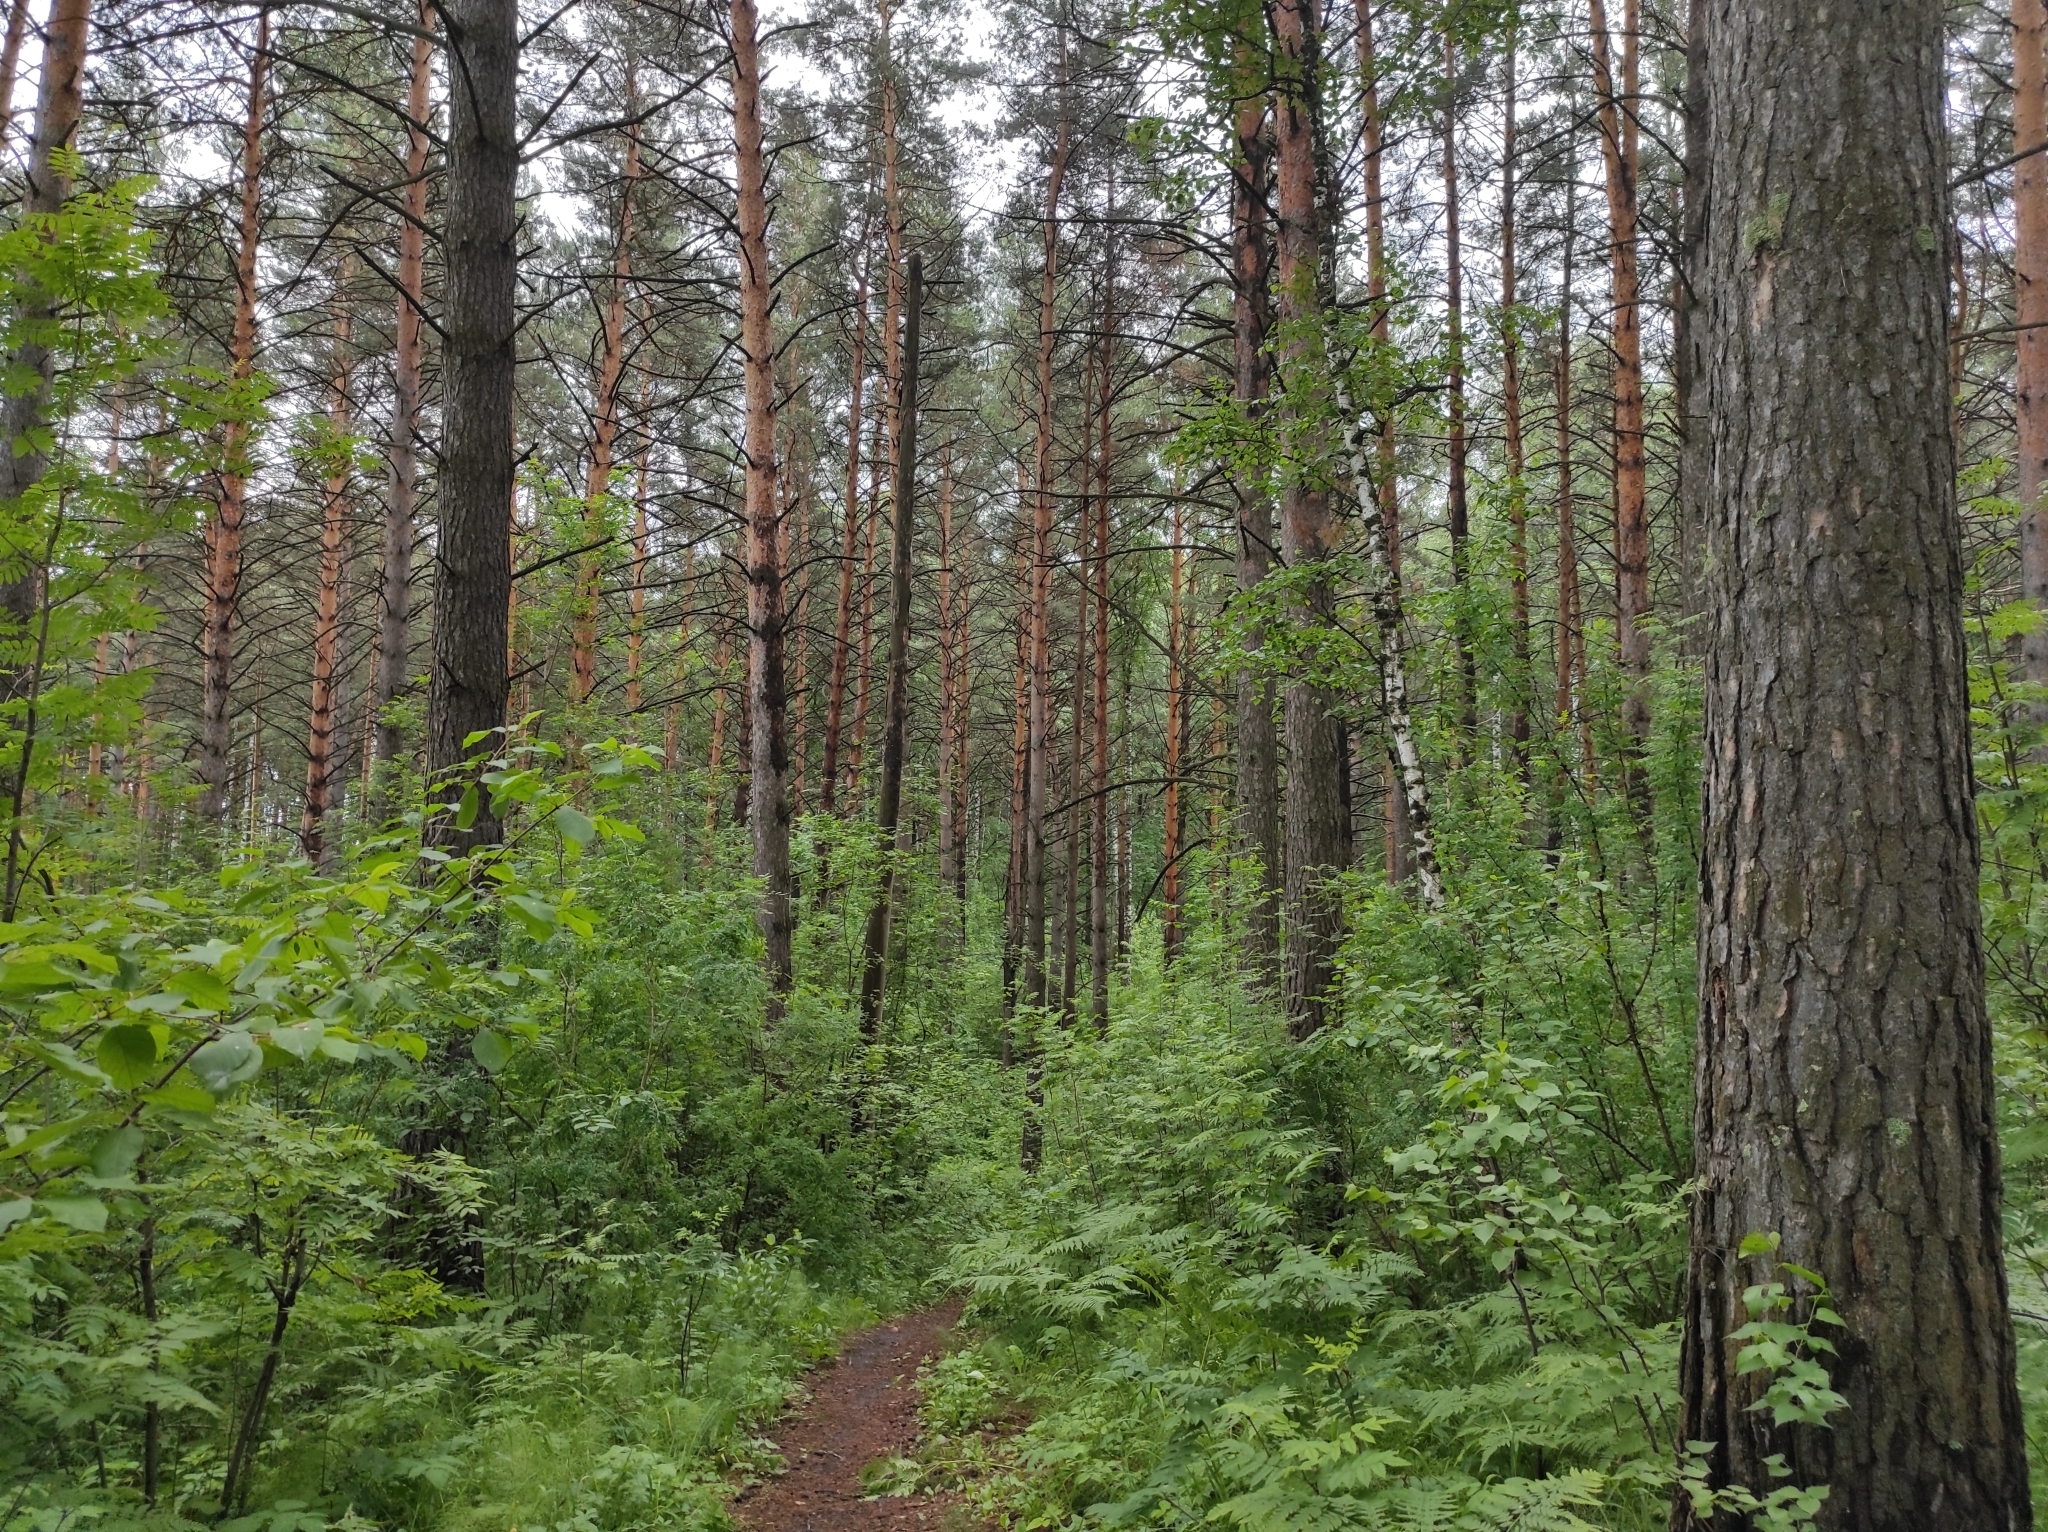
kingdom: Plantae
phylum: Tracheophyta
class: Pinopsida
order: Pinales
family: Pinaceae
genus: Pinus
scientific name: Pinus sylvestris
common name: Scots pine
